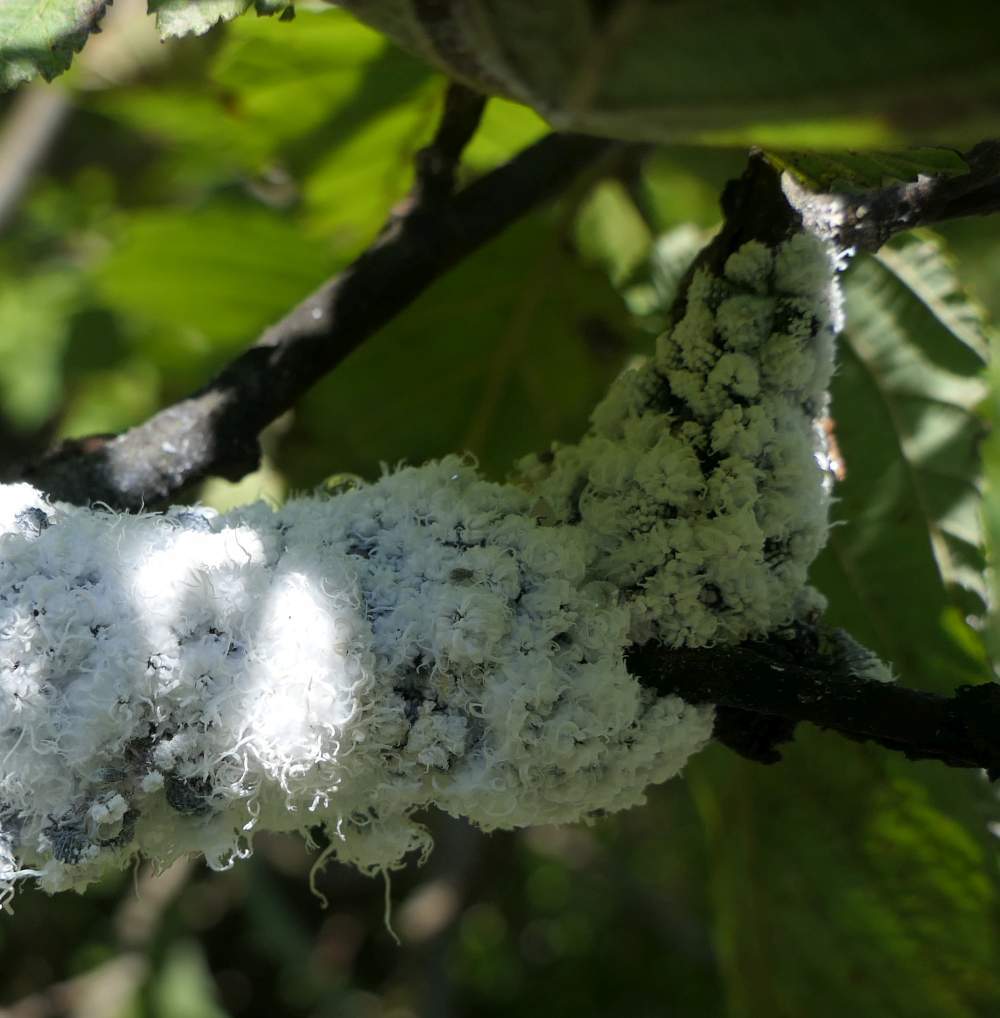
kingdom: Animalia
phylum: Arthropoda
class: Insecta
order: Hemiptera
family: Aphididae
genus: Prociphilus
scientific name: Prociphilus tessellatus
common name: Woolly alder aphid
